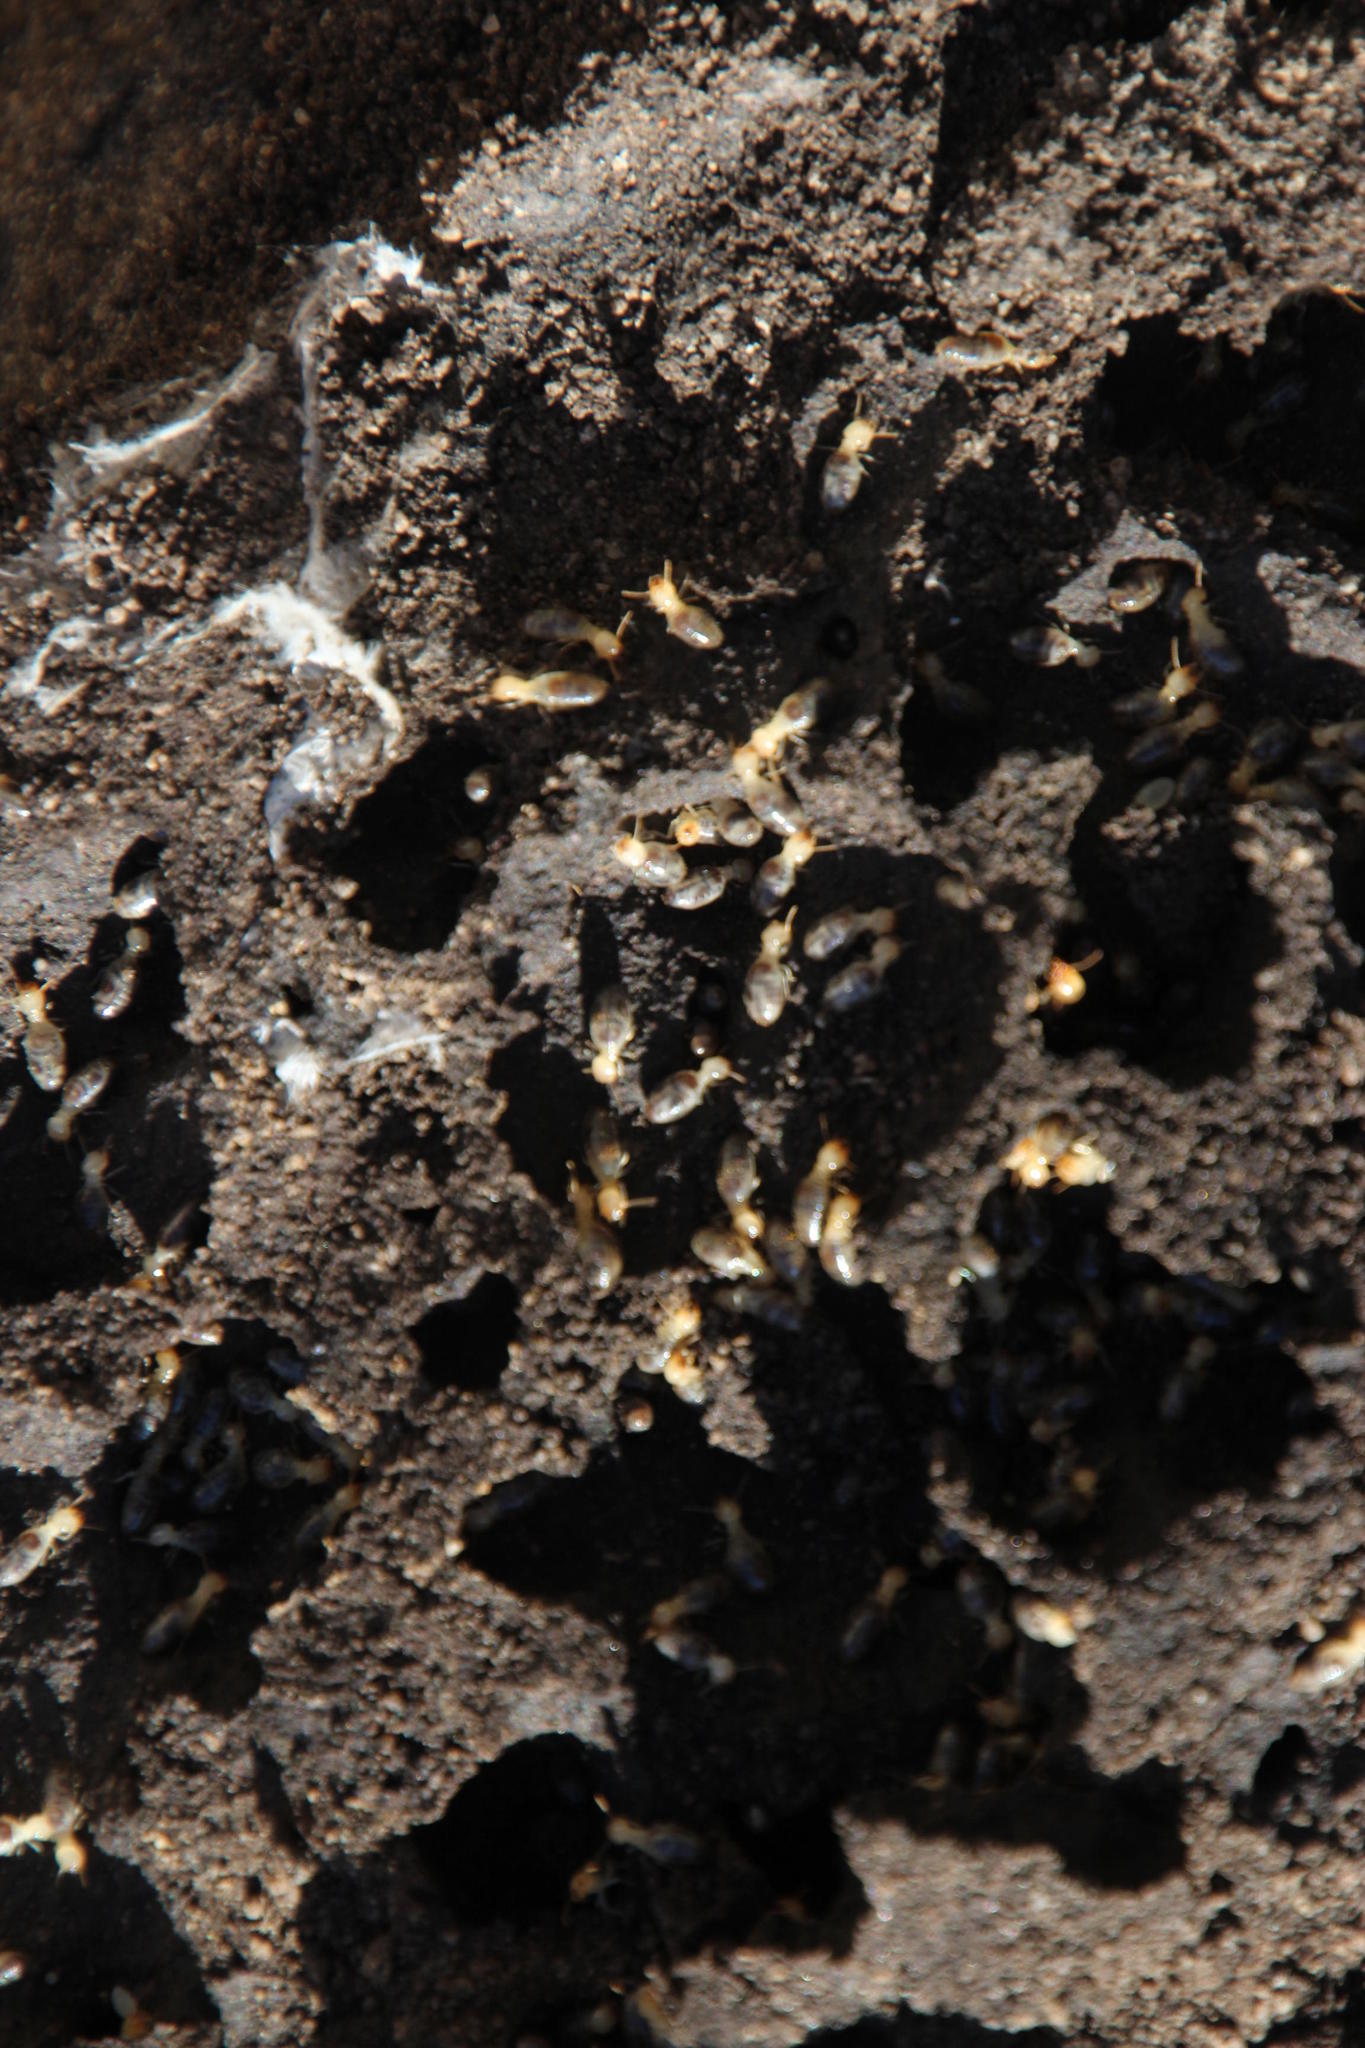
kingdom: Animalia
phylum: Arthropoda
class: Insecta
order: Blattodea
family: Termitidae
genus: Amitermes
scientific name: Amitermes hastatus
